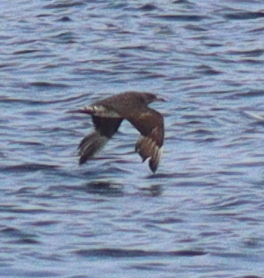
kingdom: Animalia
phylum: Chordata
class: Aves
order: Charadriiformes
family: Stercorariidae
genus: Stercorarius
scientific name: Stercorarius parasiticus
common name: Parasitic jaeger
